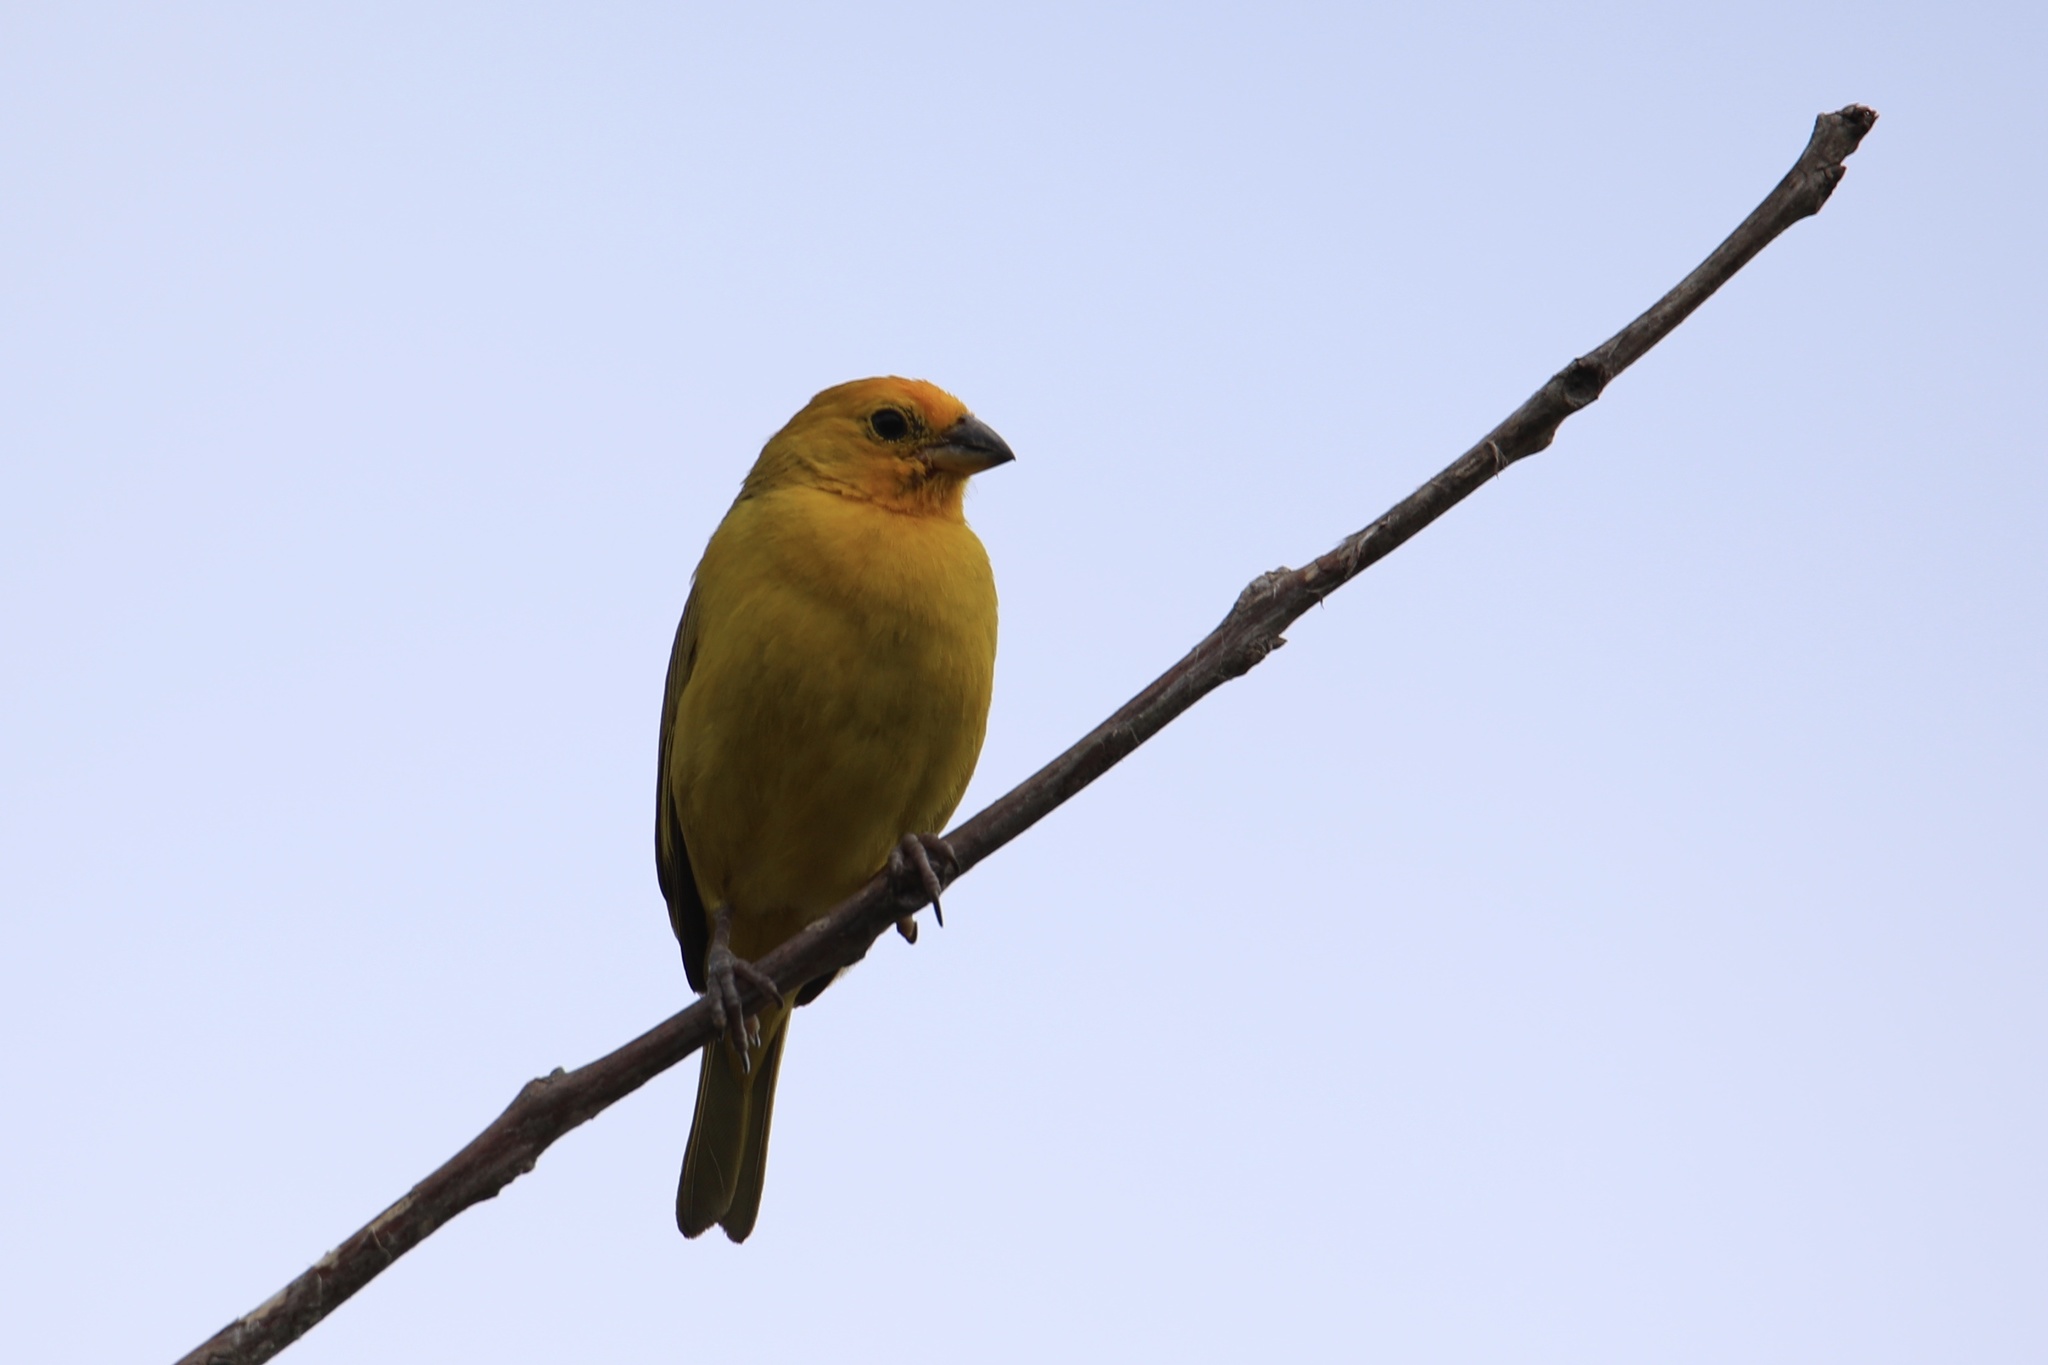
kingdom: Animalia
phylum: Chordata
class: Aves
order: Passeriformes
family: Thraupidae
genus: Sicalis
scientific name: Sicalis flaveola
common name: Saffron finch
